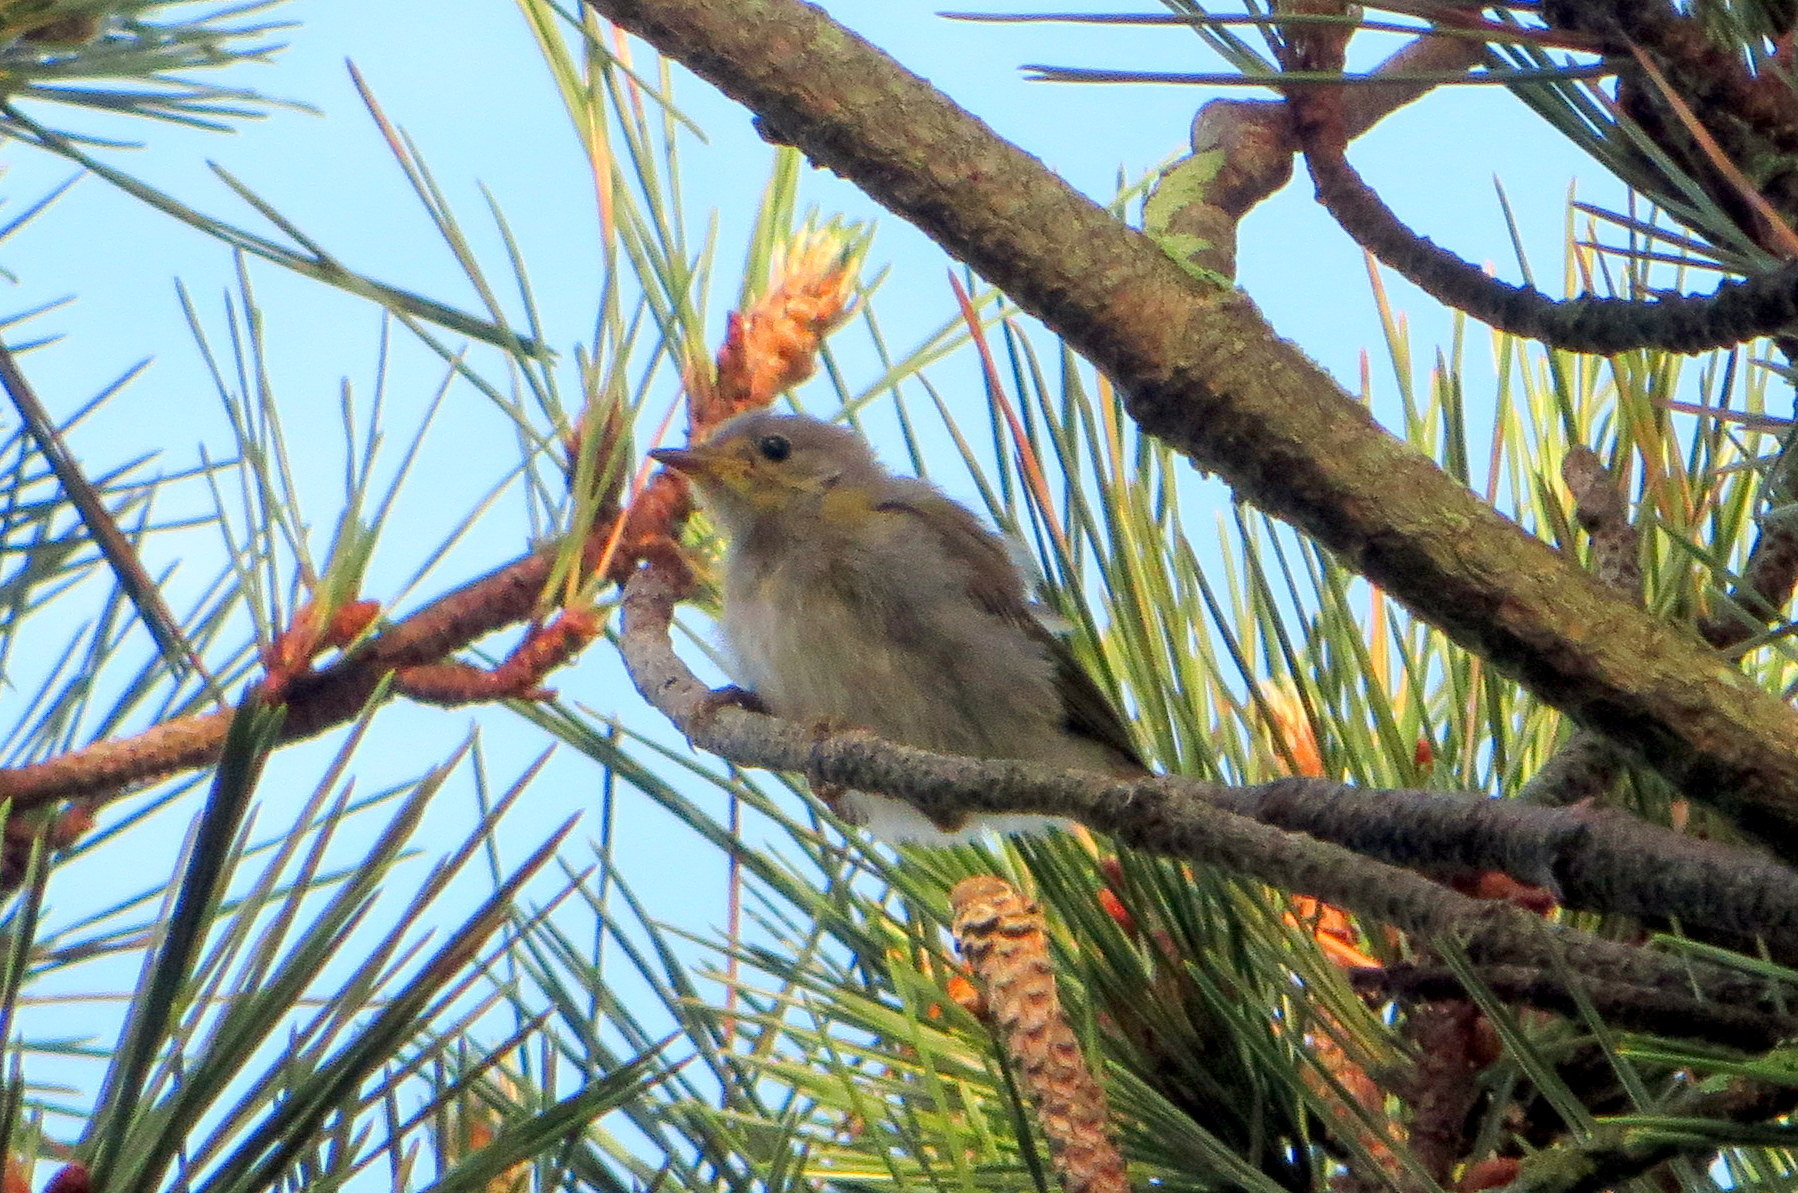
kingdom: Animalia
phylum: Chordata
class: Aves
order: Passeriformes
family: Parulidae
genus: Setophaga
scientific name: Setophaga petechia
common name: Yellow warbler
